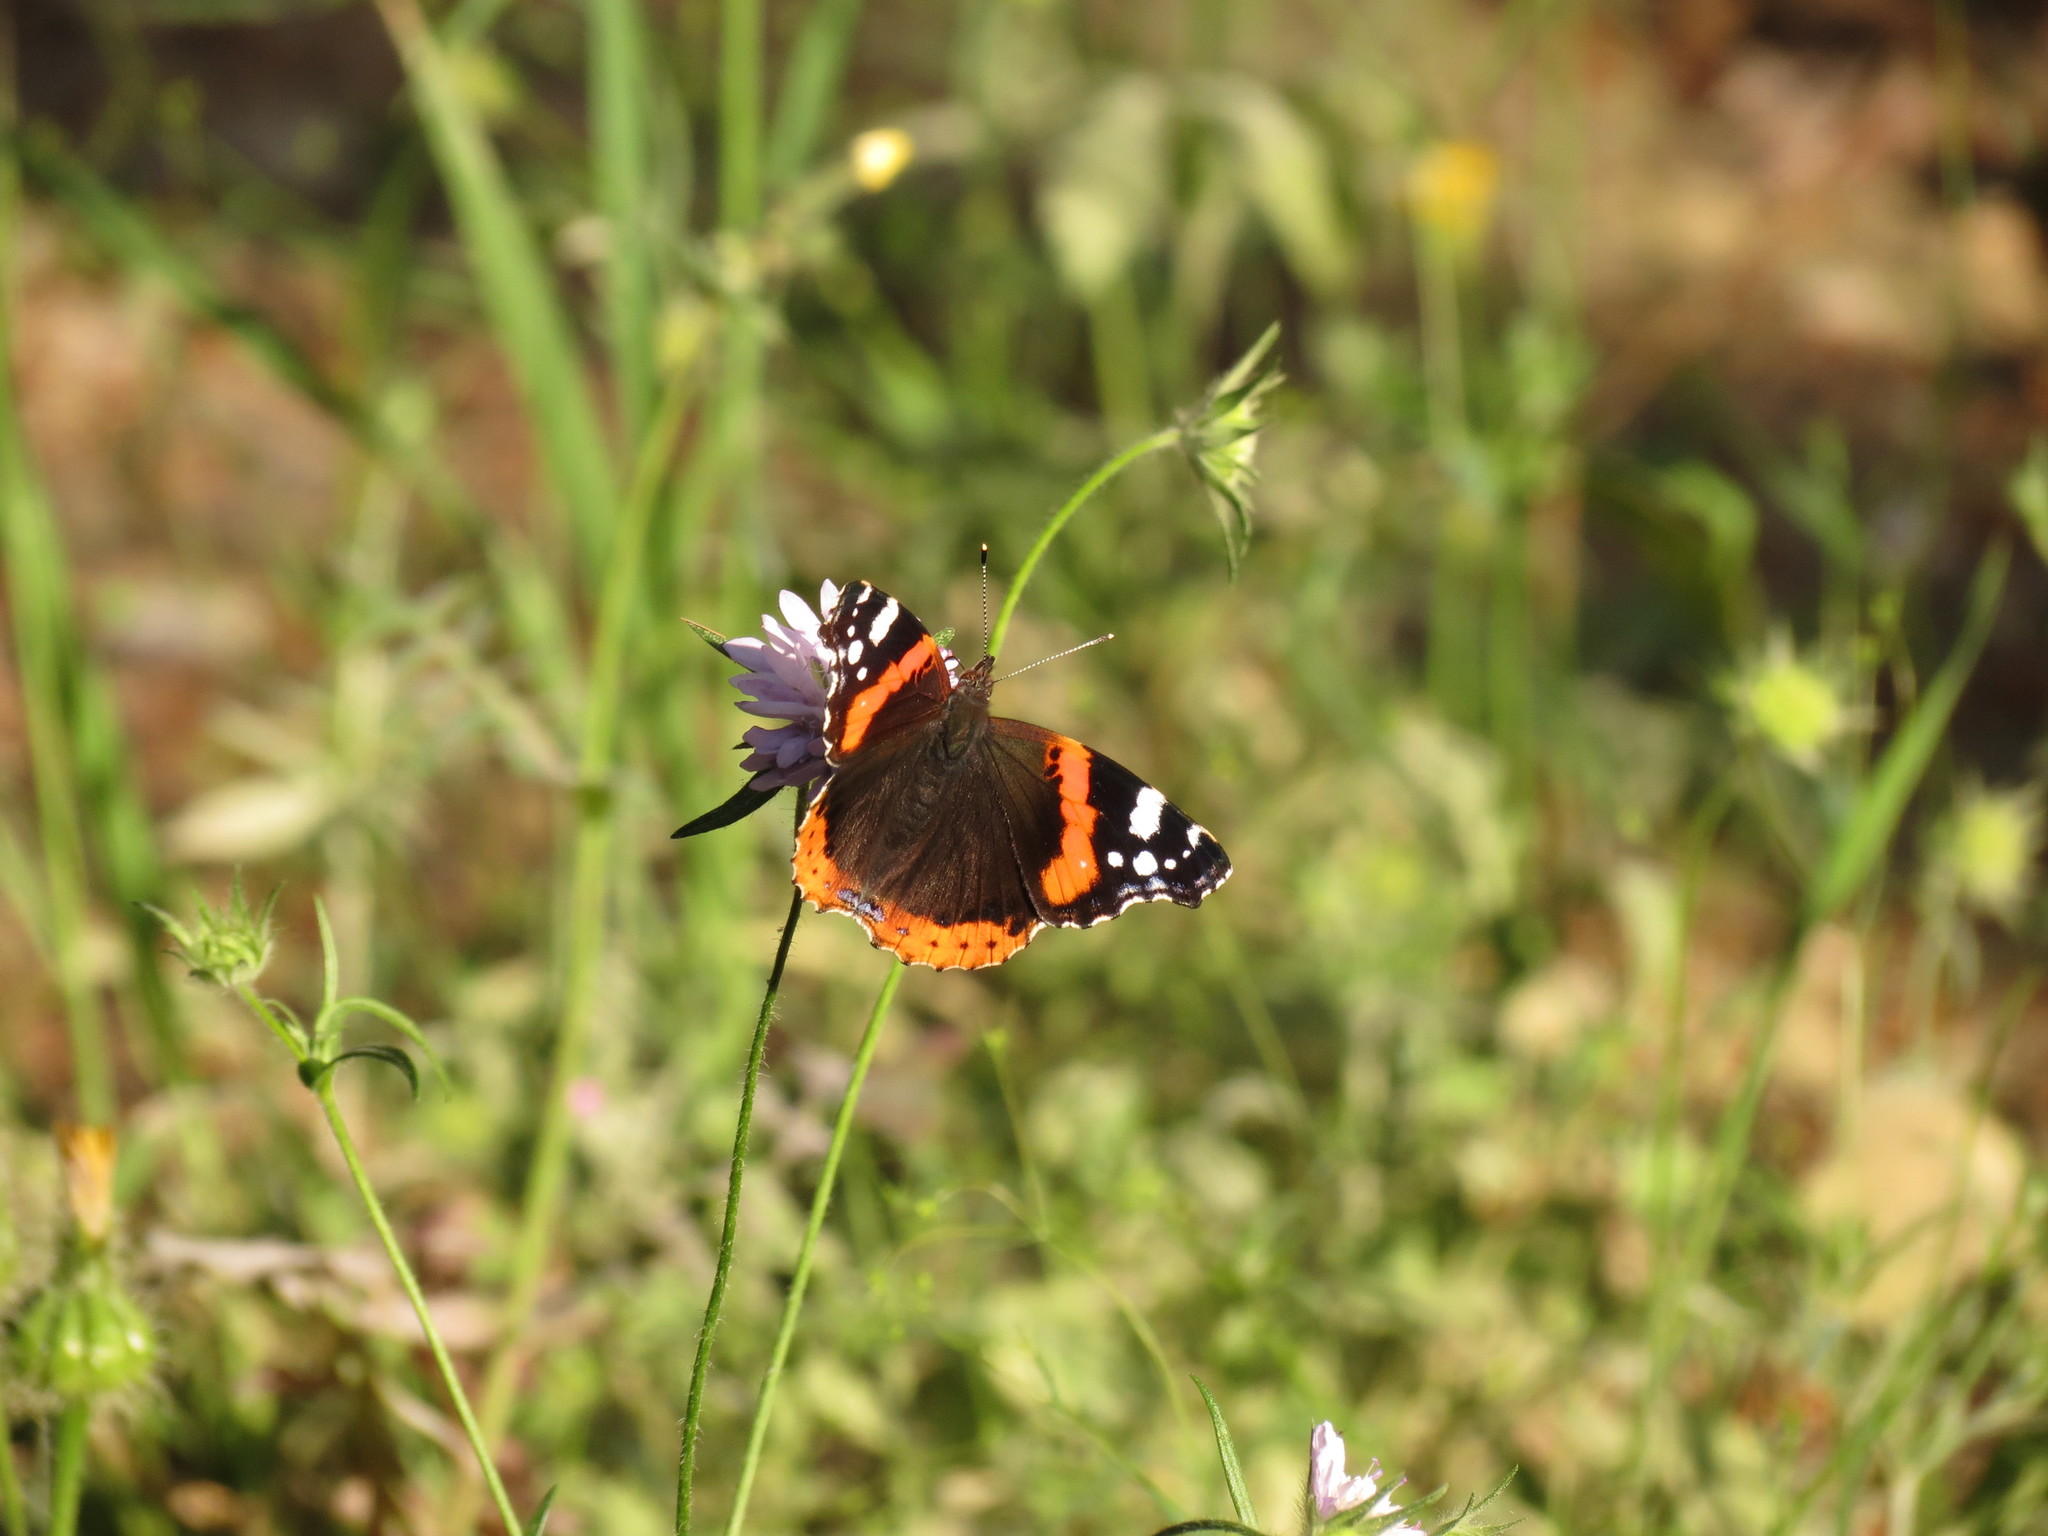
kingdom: Animalia
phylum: Arthropoda
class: Insecta
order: Lepidoptera
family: Nymphalidae
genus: Vanessa
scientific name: Vanessa atalanta
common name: Red admiral
